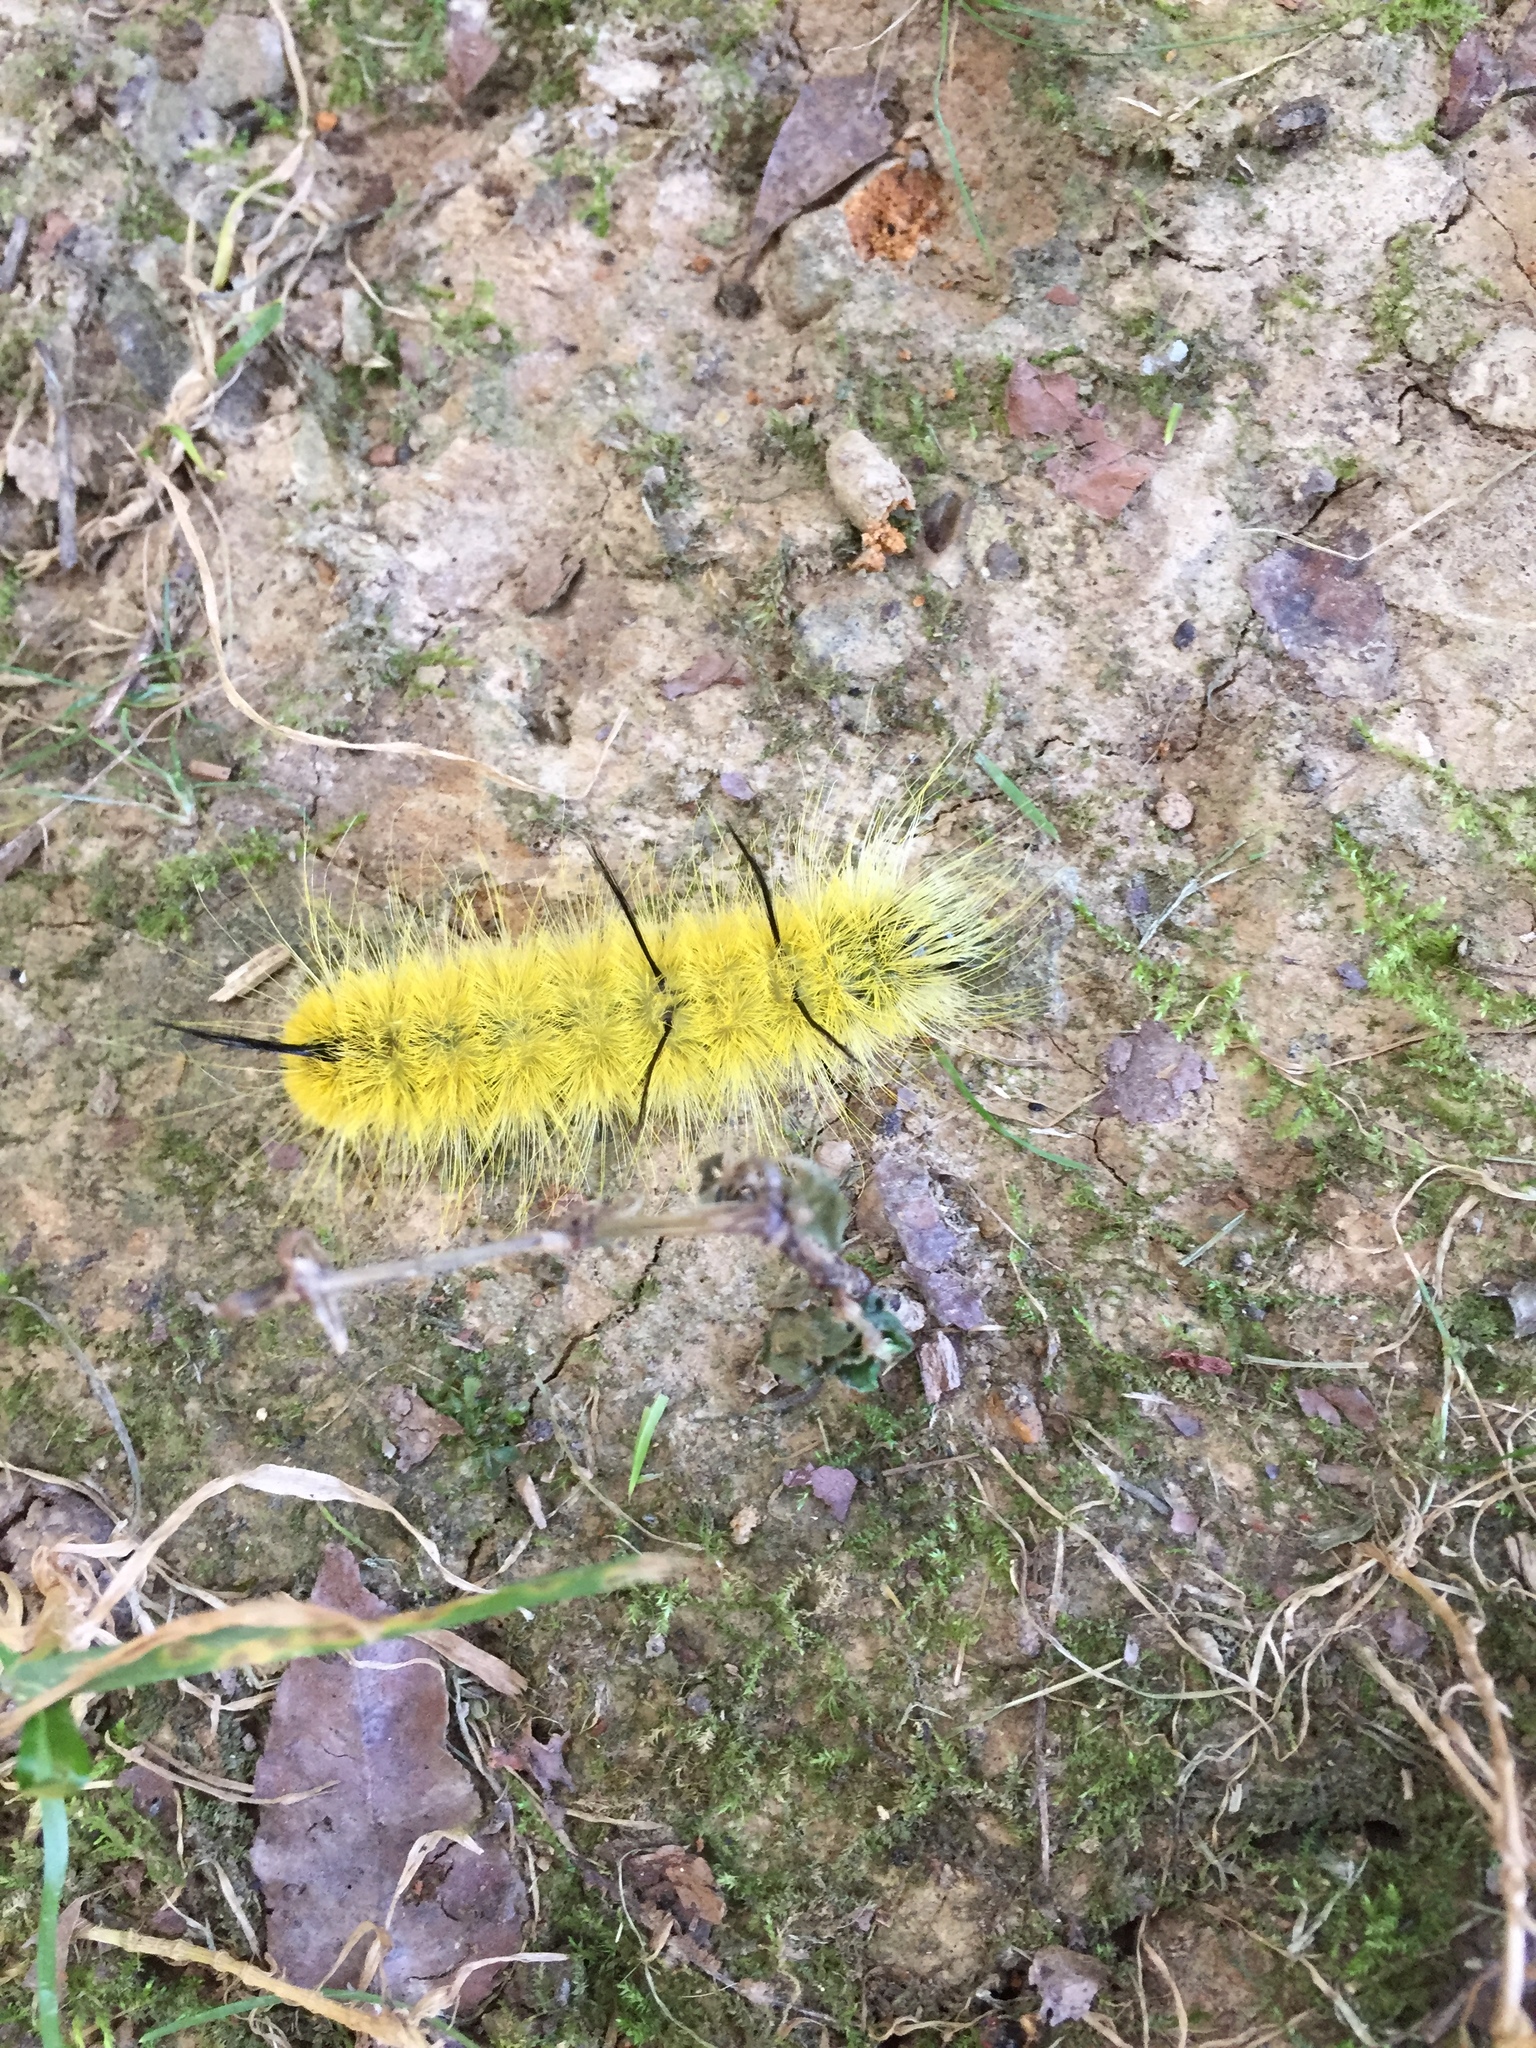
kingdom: Animalia
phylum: Arthropoda
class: Insecta
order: Lepidoptera
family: Noctuidae
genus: Acronicta
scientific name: Acronicta americana
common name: American dagger
